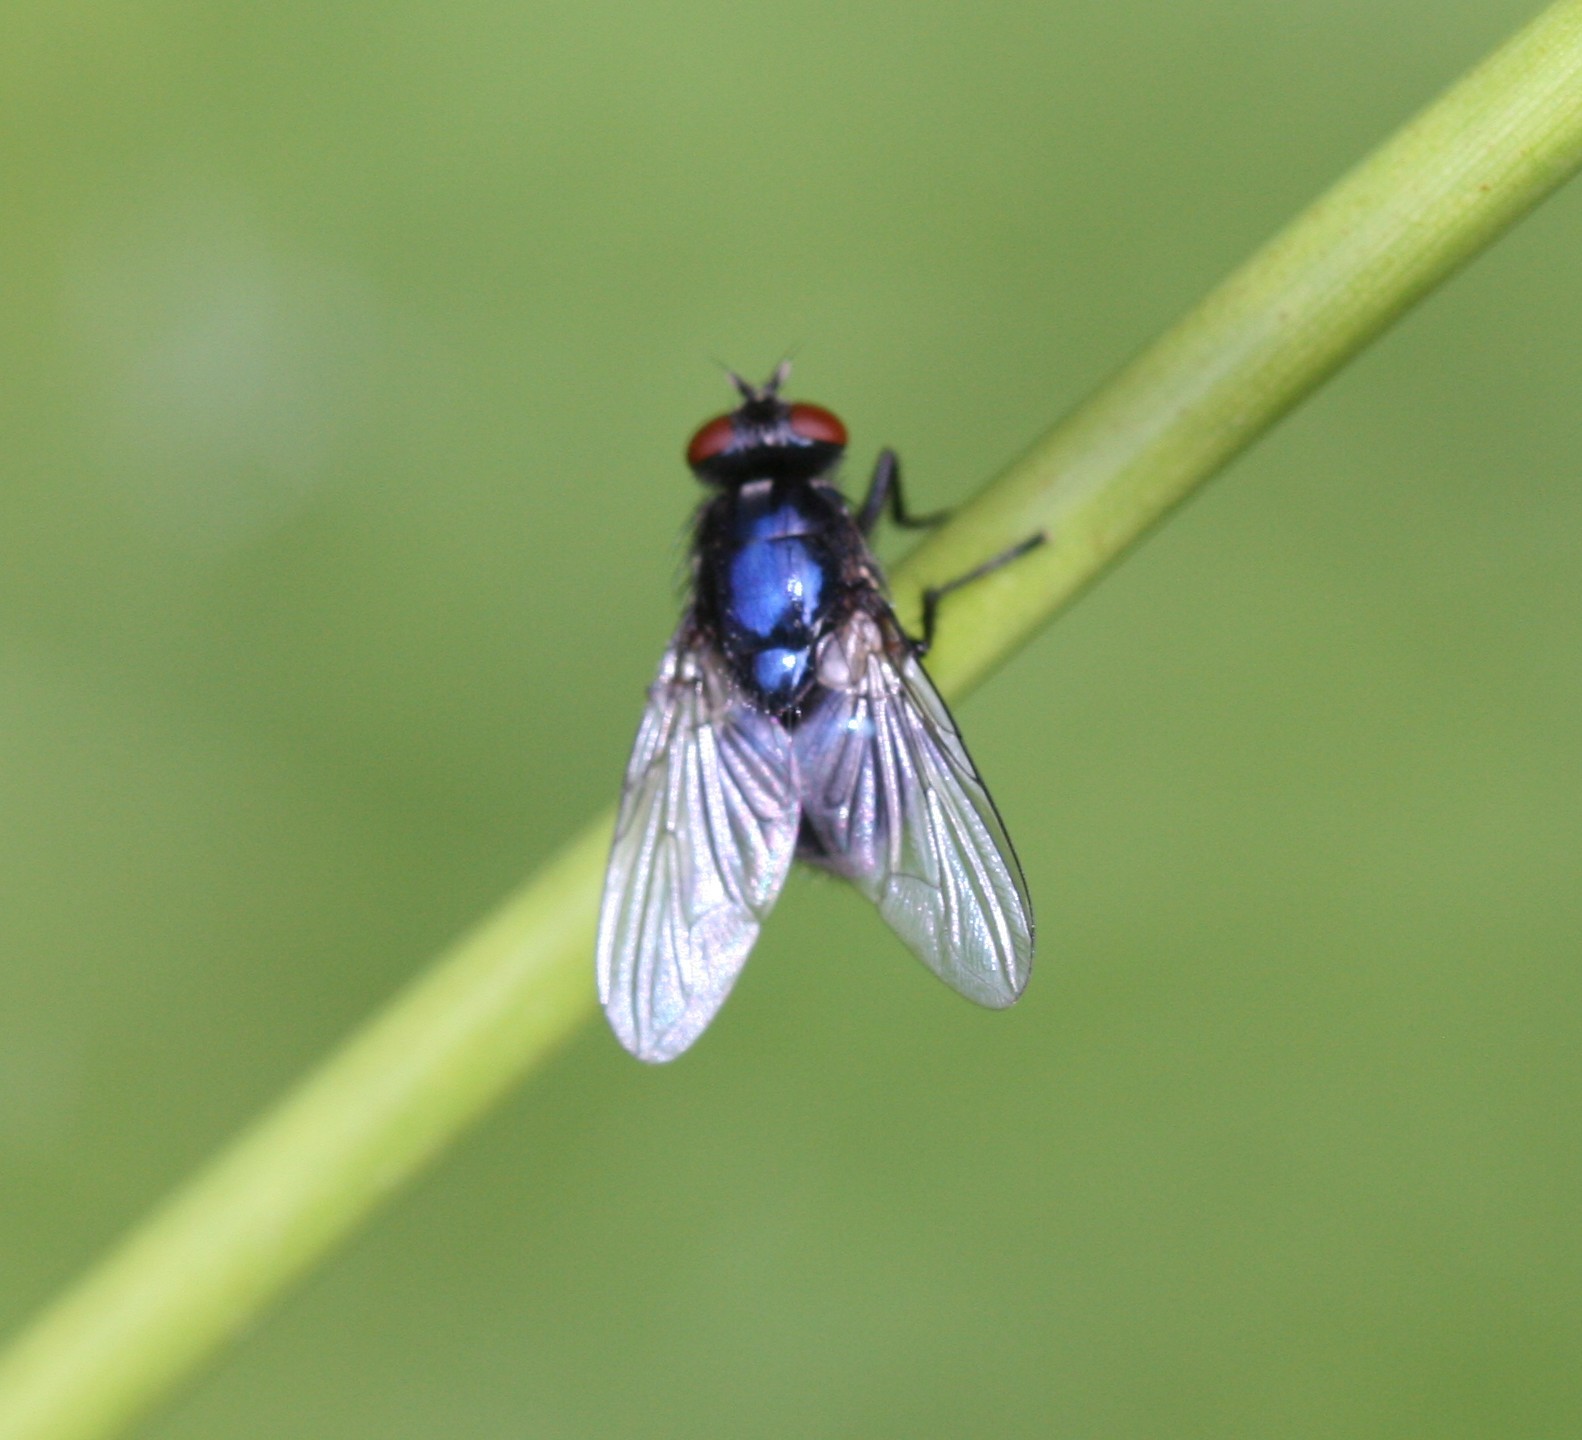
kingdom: Animalia
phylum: Arthropoda
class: Insecta
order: Diptera
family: Muscidae
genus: Eudasyphora
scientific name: Eudasyphora cyanicolor
